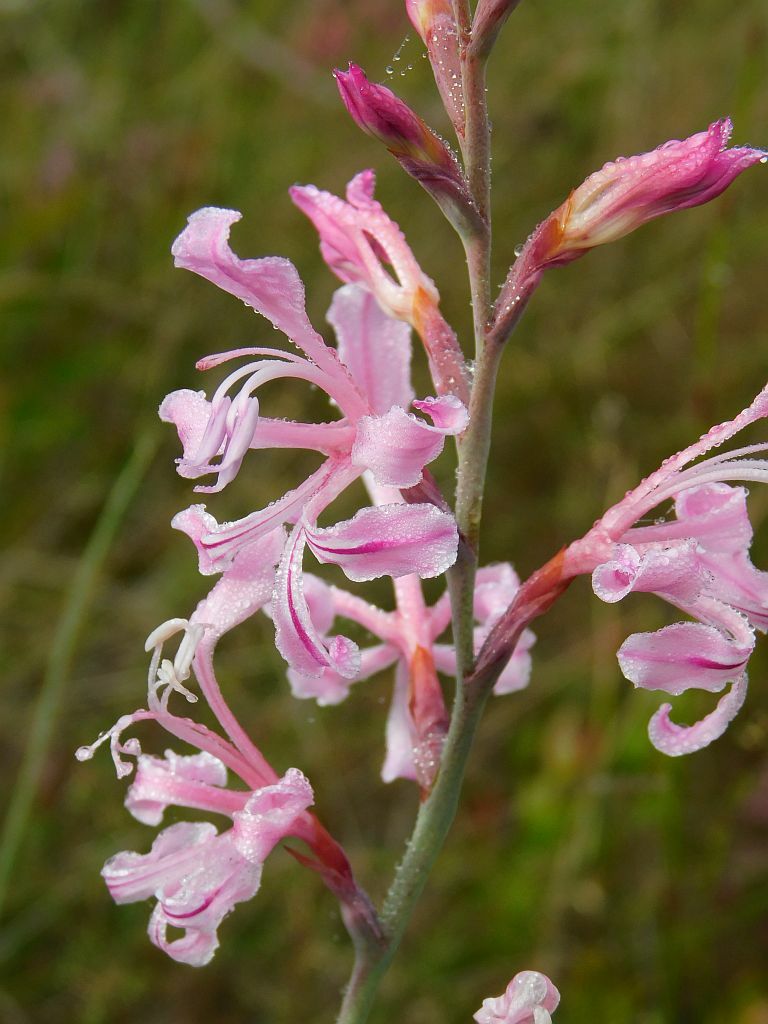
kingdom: Plantae
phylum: Tracheophyta
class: Liliopsida
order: Asparagales
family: Iridaceae
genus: Tritoniopsis
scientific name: Tritoniopsis lata
